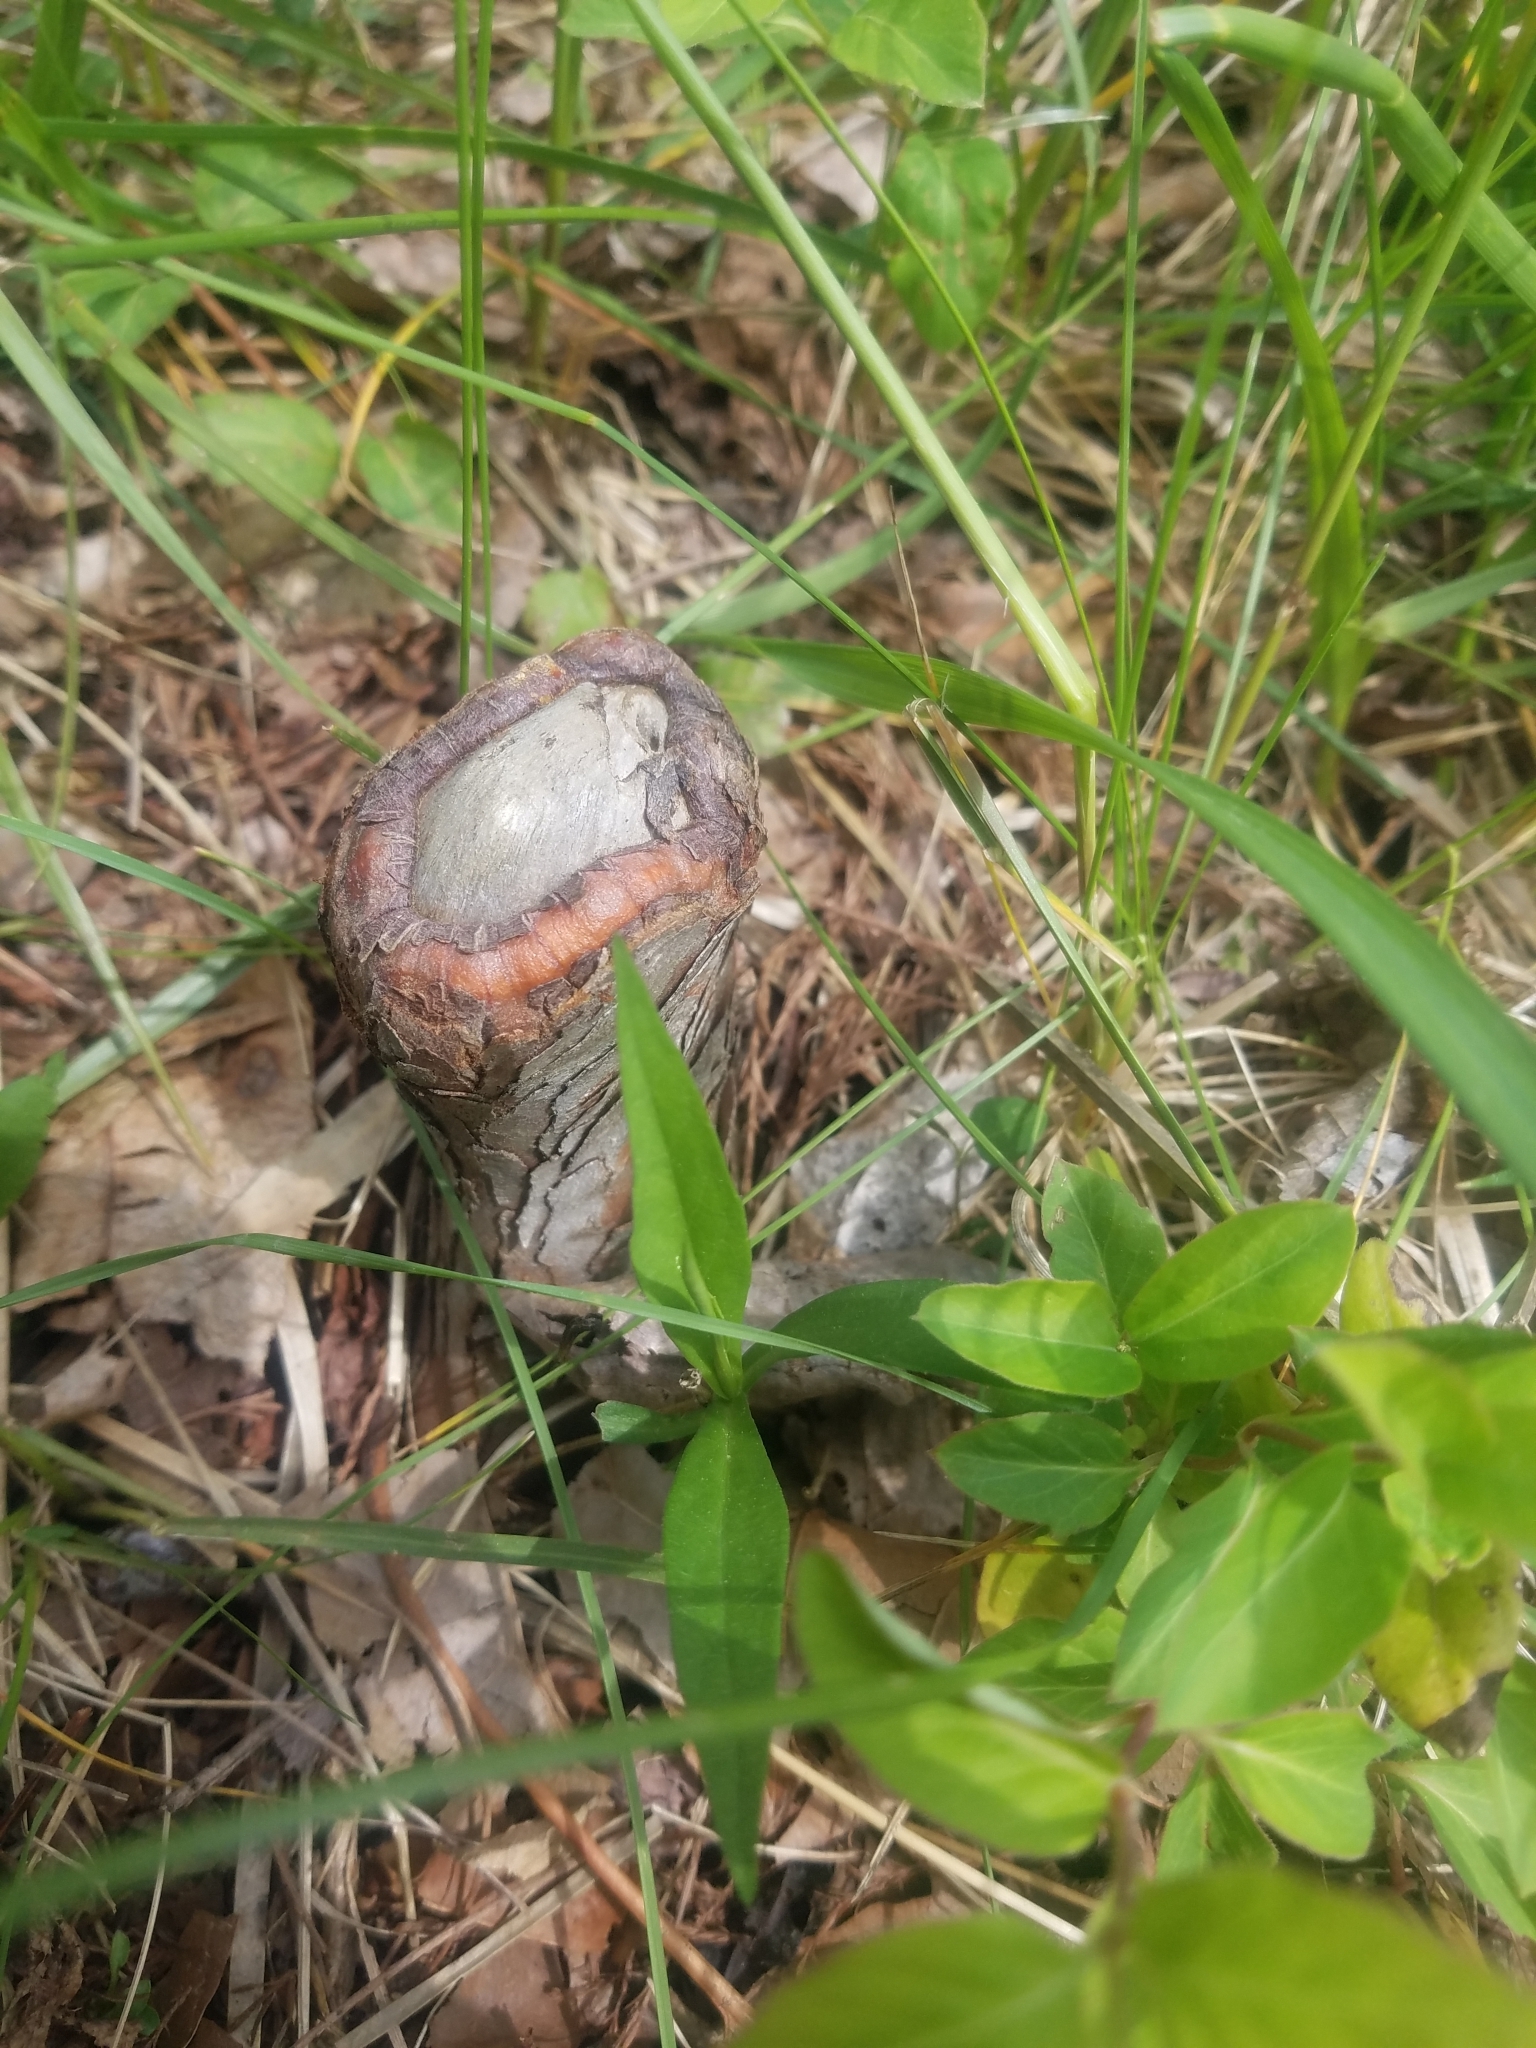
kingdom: Plantae
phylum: Tracheophyta
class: Pinopsida
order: Pinales
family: Cupressaceae
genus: Taxodium
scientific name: Taxodium distichum
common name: Bald cypress
